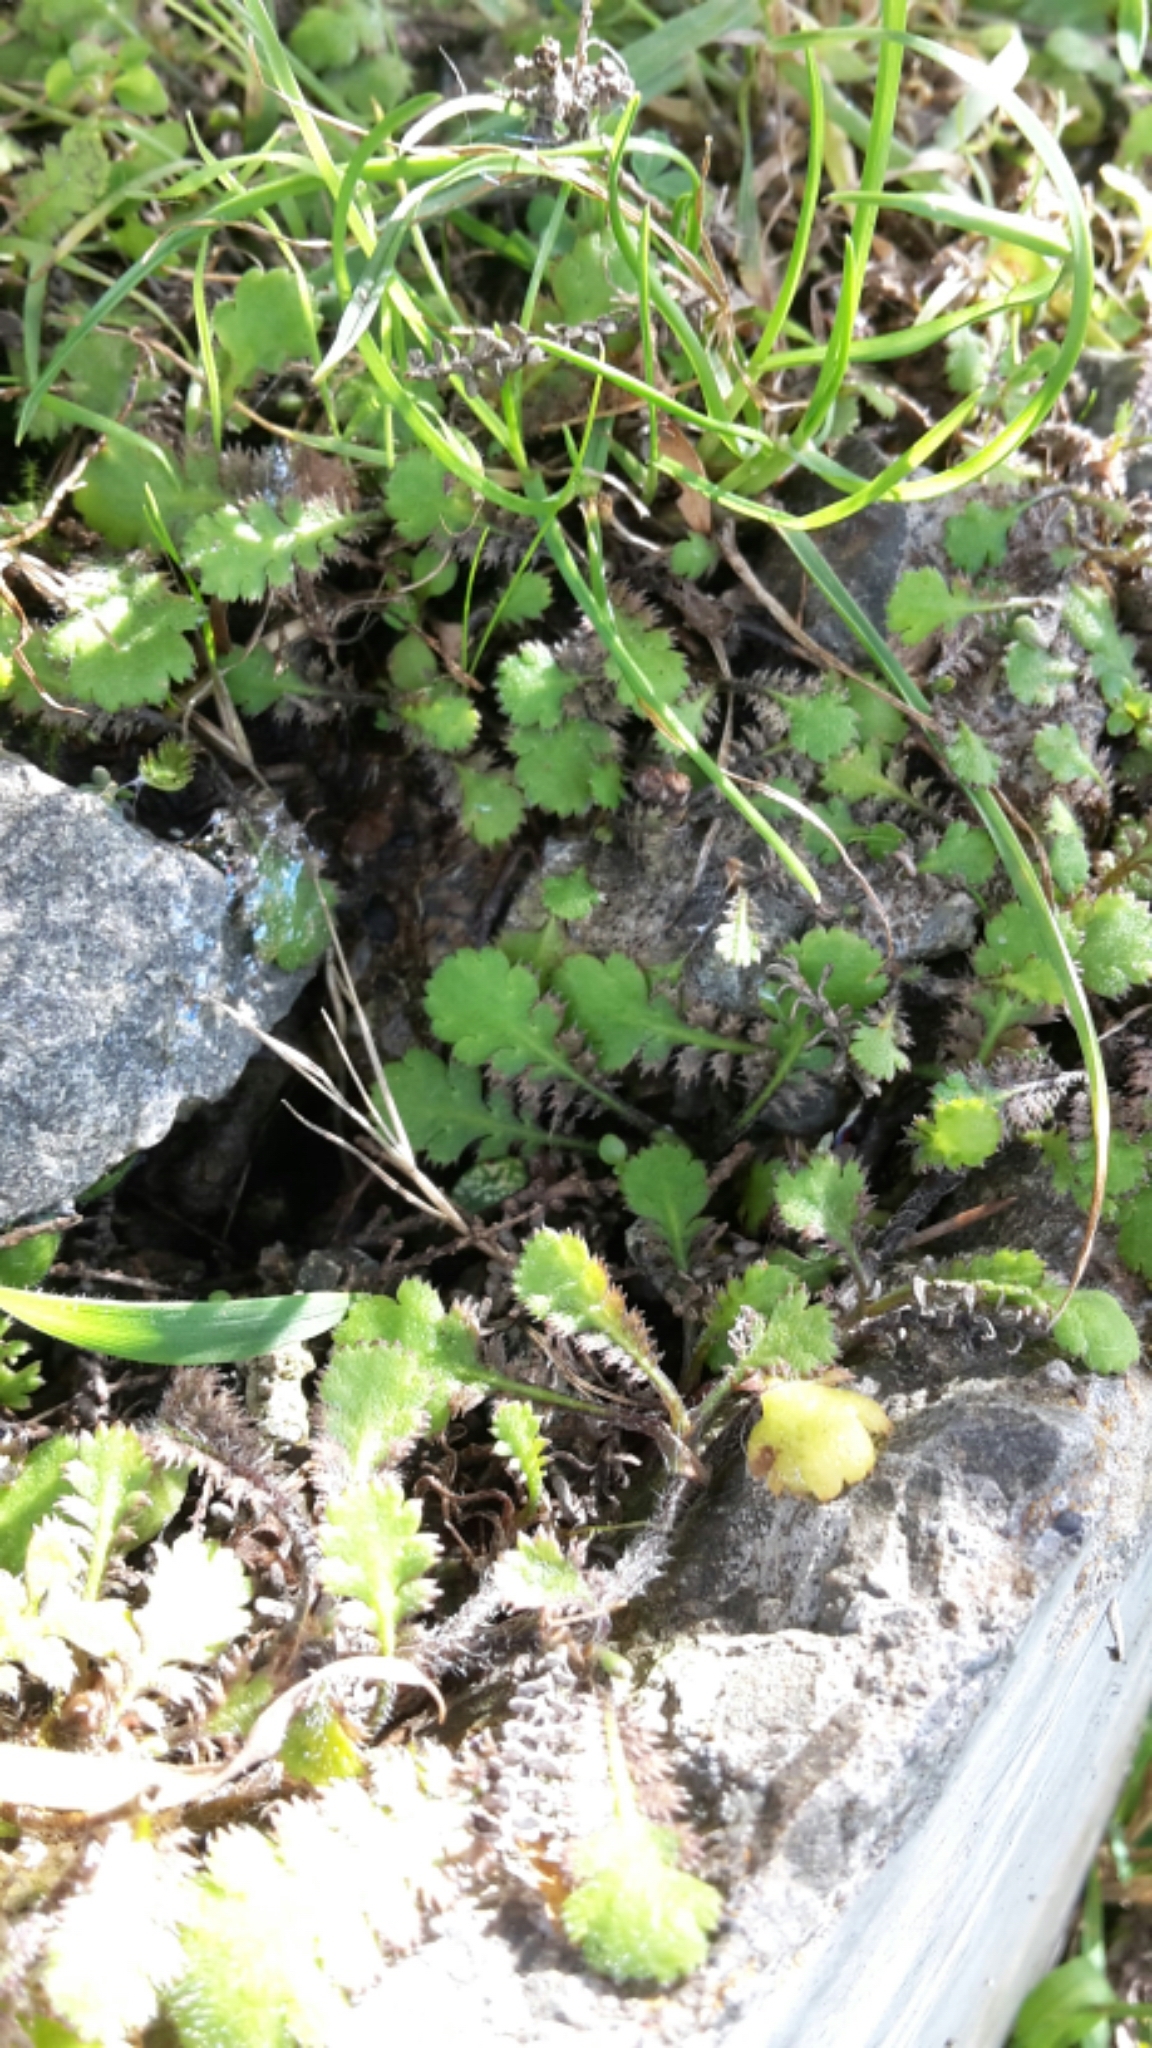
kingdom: Plantae
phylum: Tracheophyta
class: Magnoliopsida
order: Asterales
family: Asteraceae
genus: Leptinella
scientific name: Leptinella squalida
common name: New zealand brass-buttons
